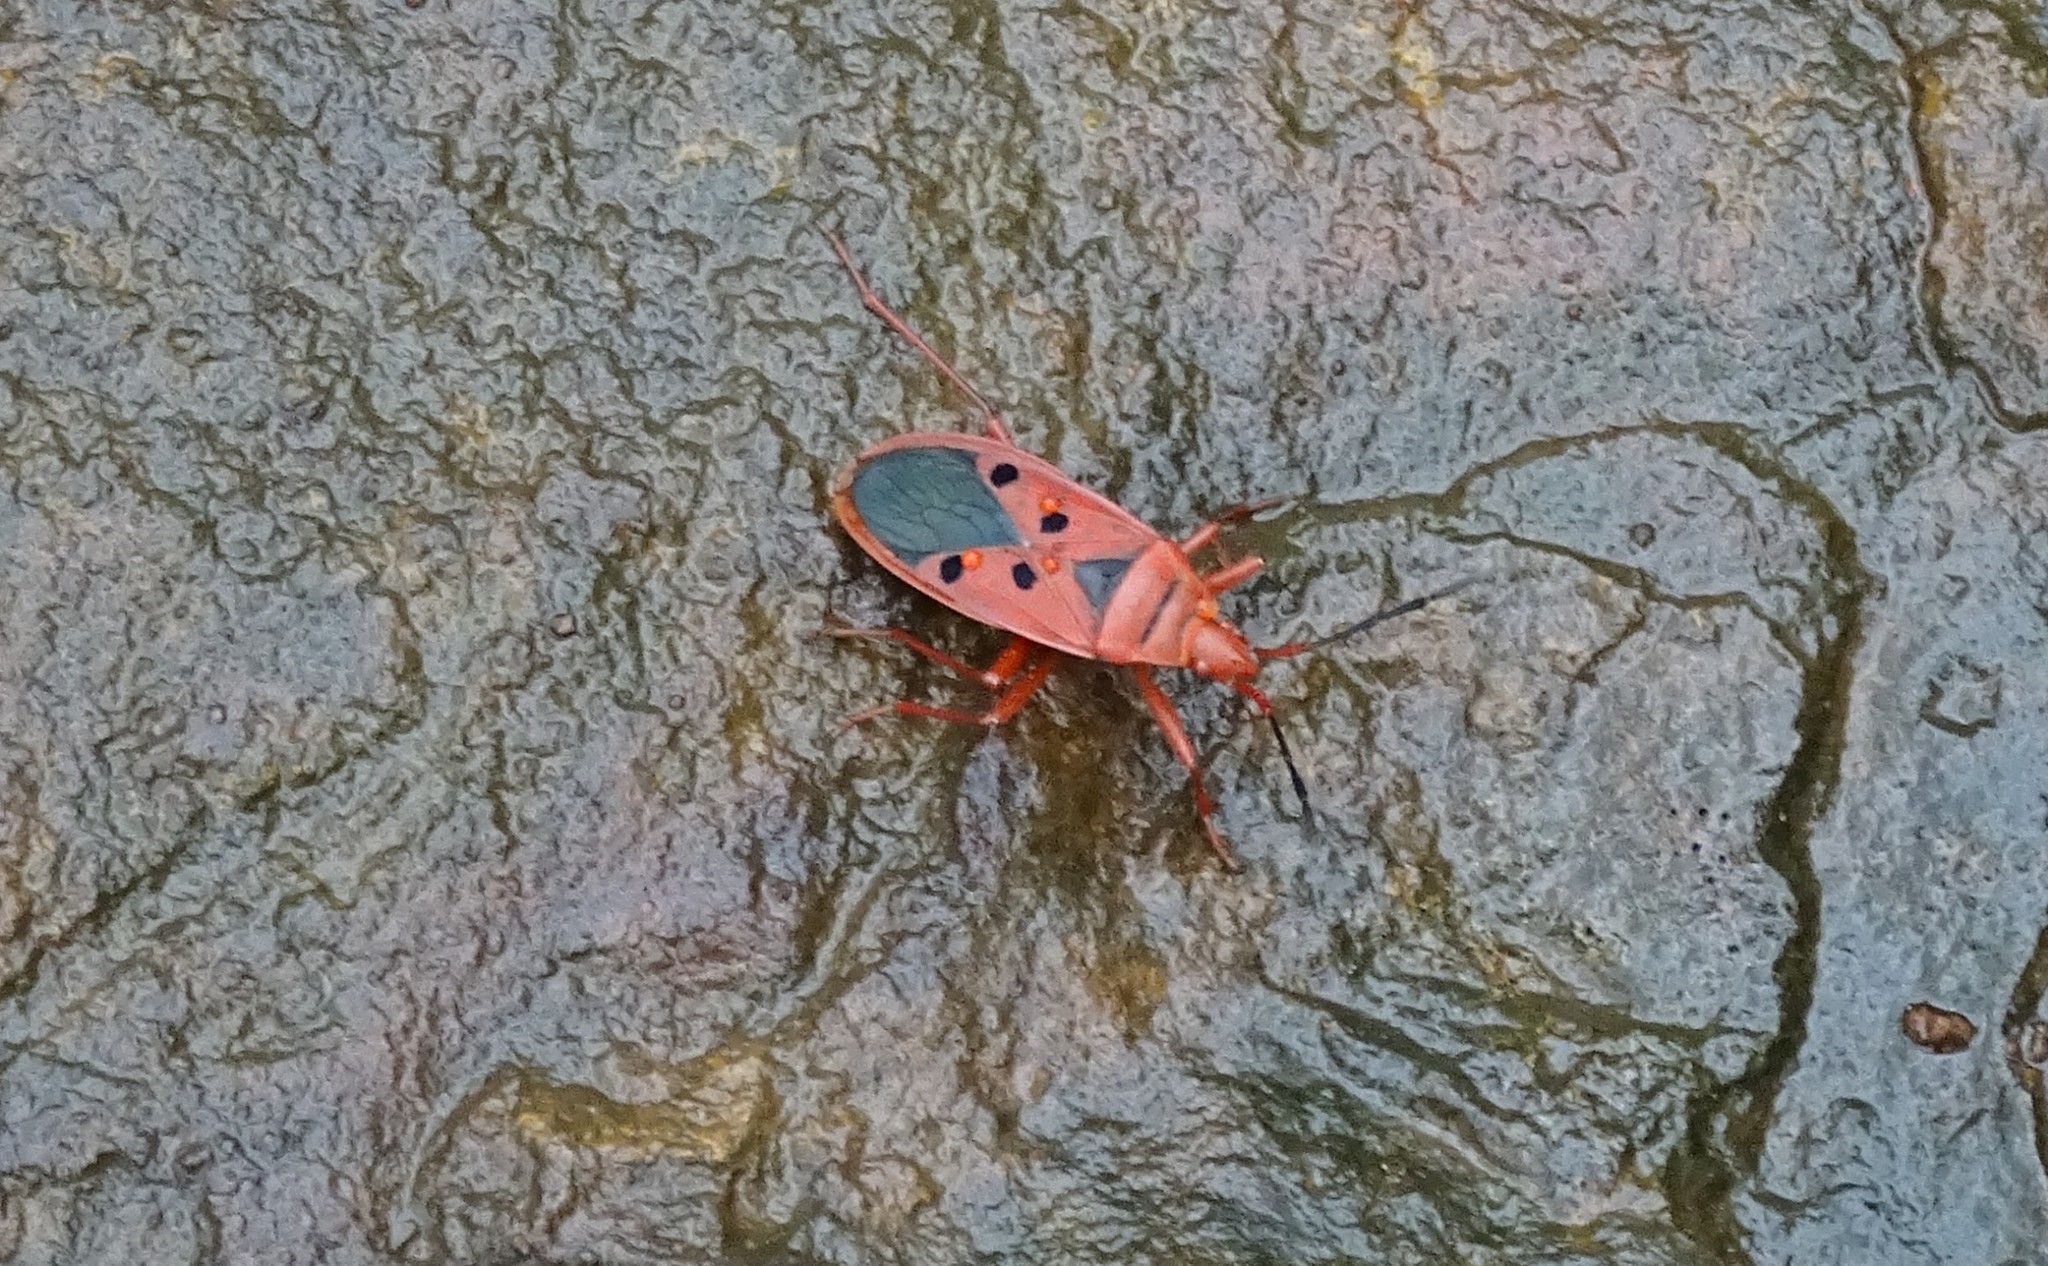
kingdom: Animalia
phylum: Arthropoda
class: Insecta
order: Hemiptera
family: Pyrrhocoridae
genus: Probergrothius
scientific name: Probergrothius
